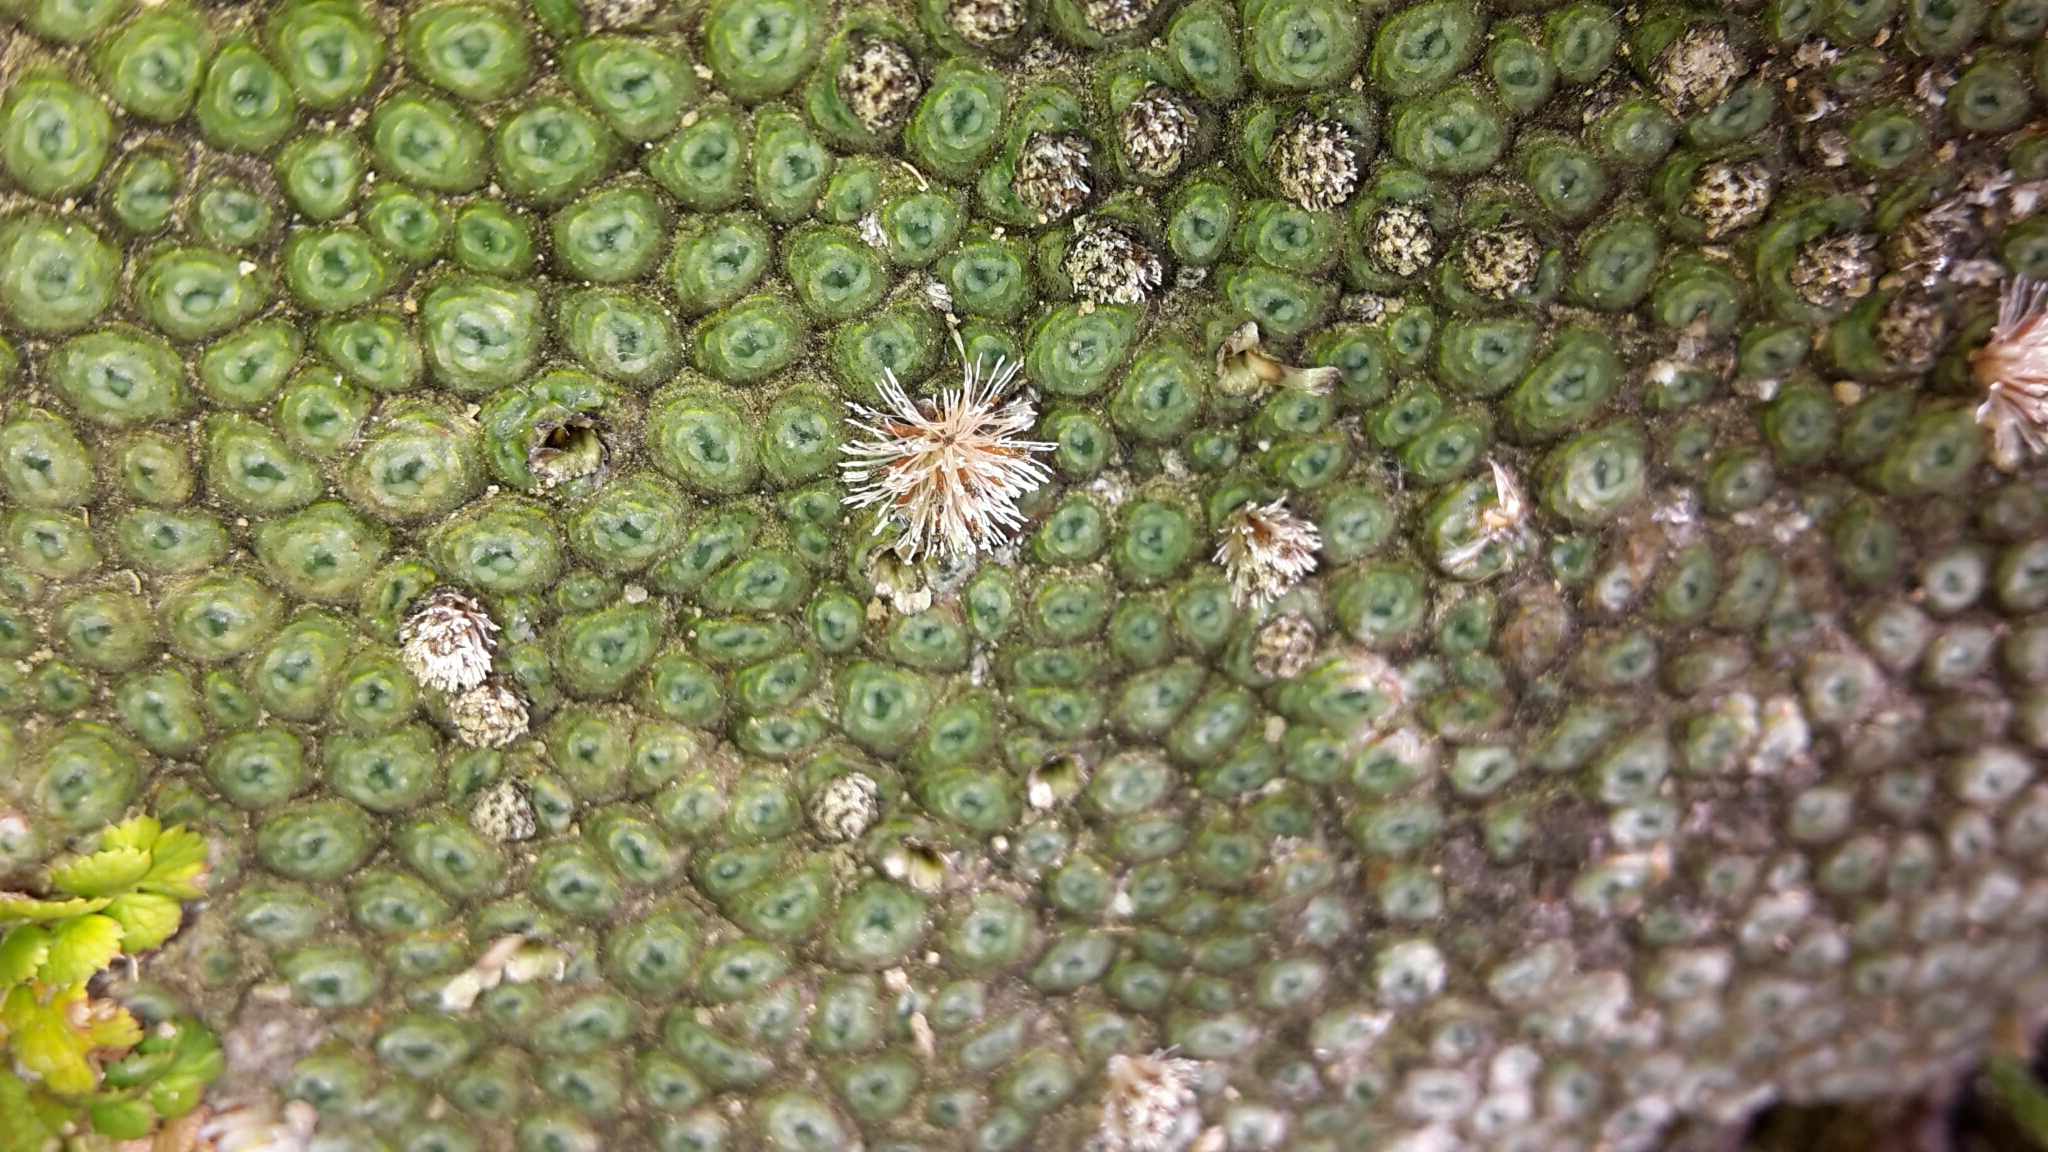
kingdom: Plantae
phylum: Tracheophyta
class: Magnoliopsida
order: Asterales
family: Asteraceae
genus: Raoulia
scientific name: Raoulia rubra
